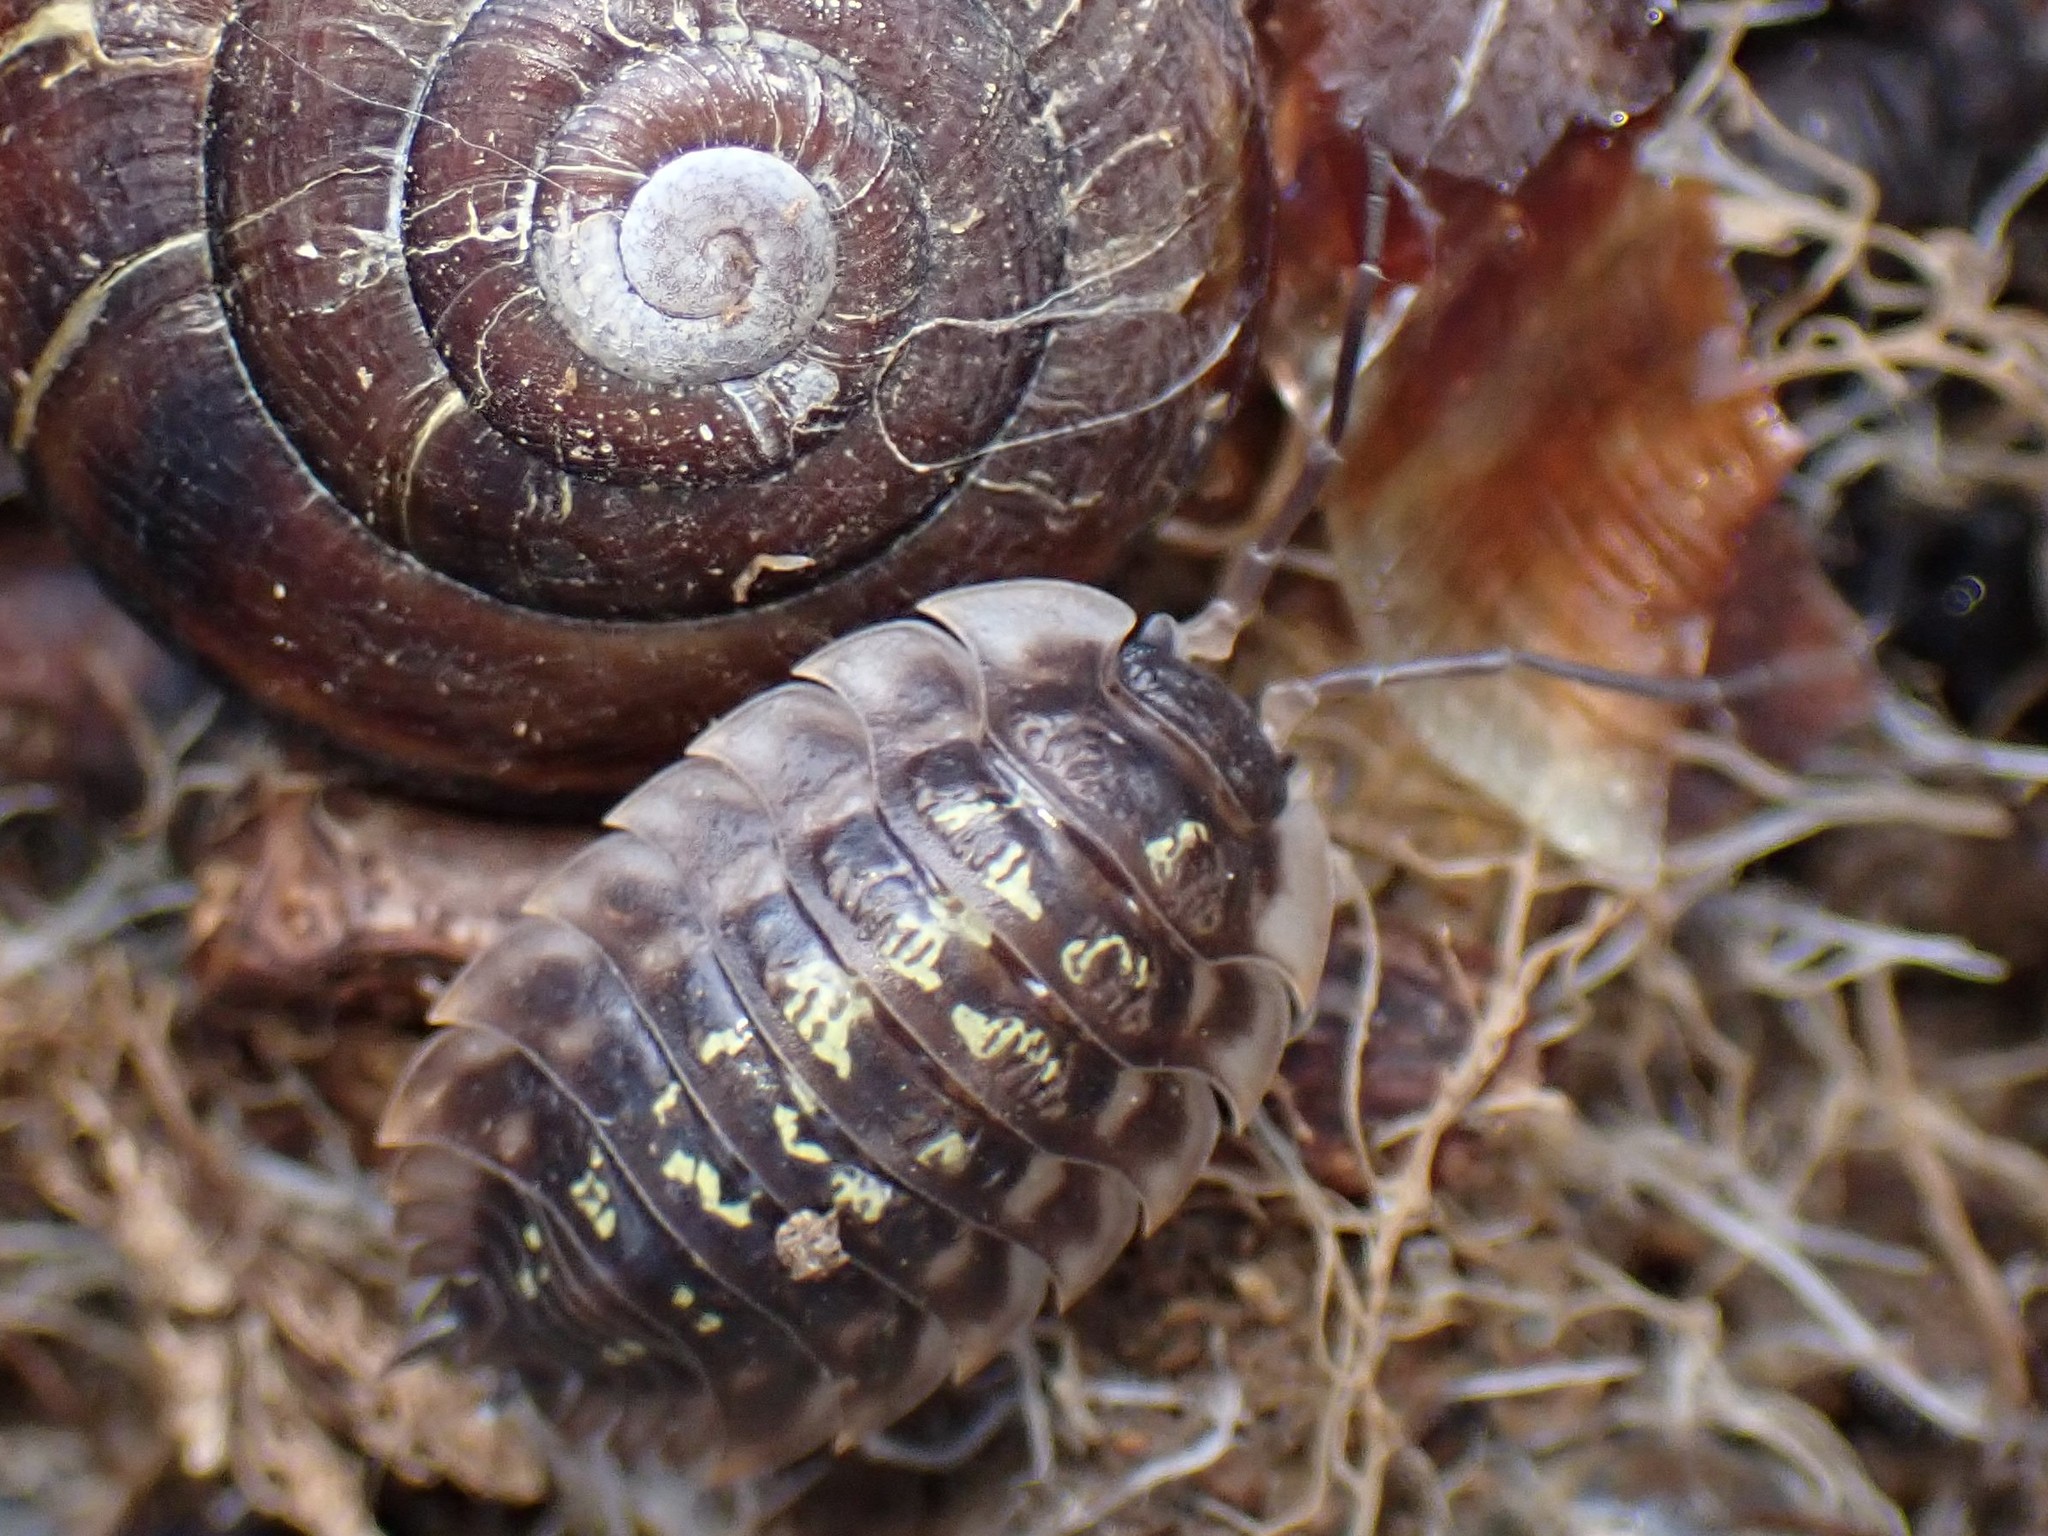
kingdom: Animalia
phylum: Arthropoda
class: Malacostraca
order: Isopoda
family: Oniscidae
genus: Oniscus
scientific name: Oniscus asellus
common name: Common shiny woodlouse
